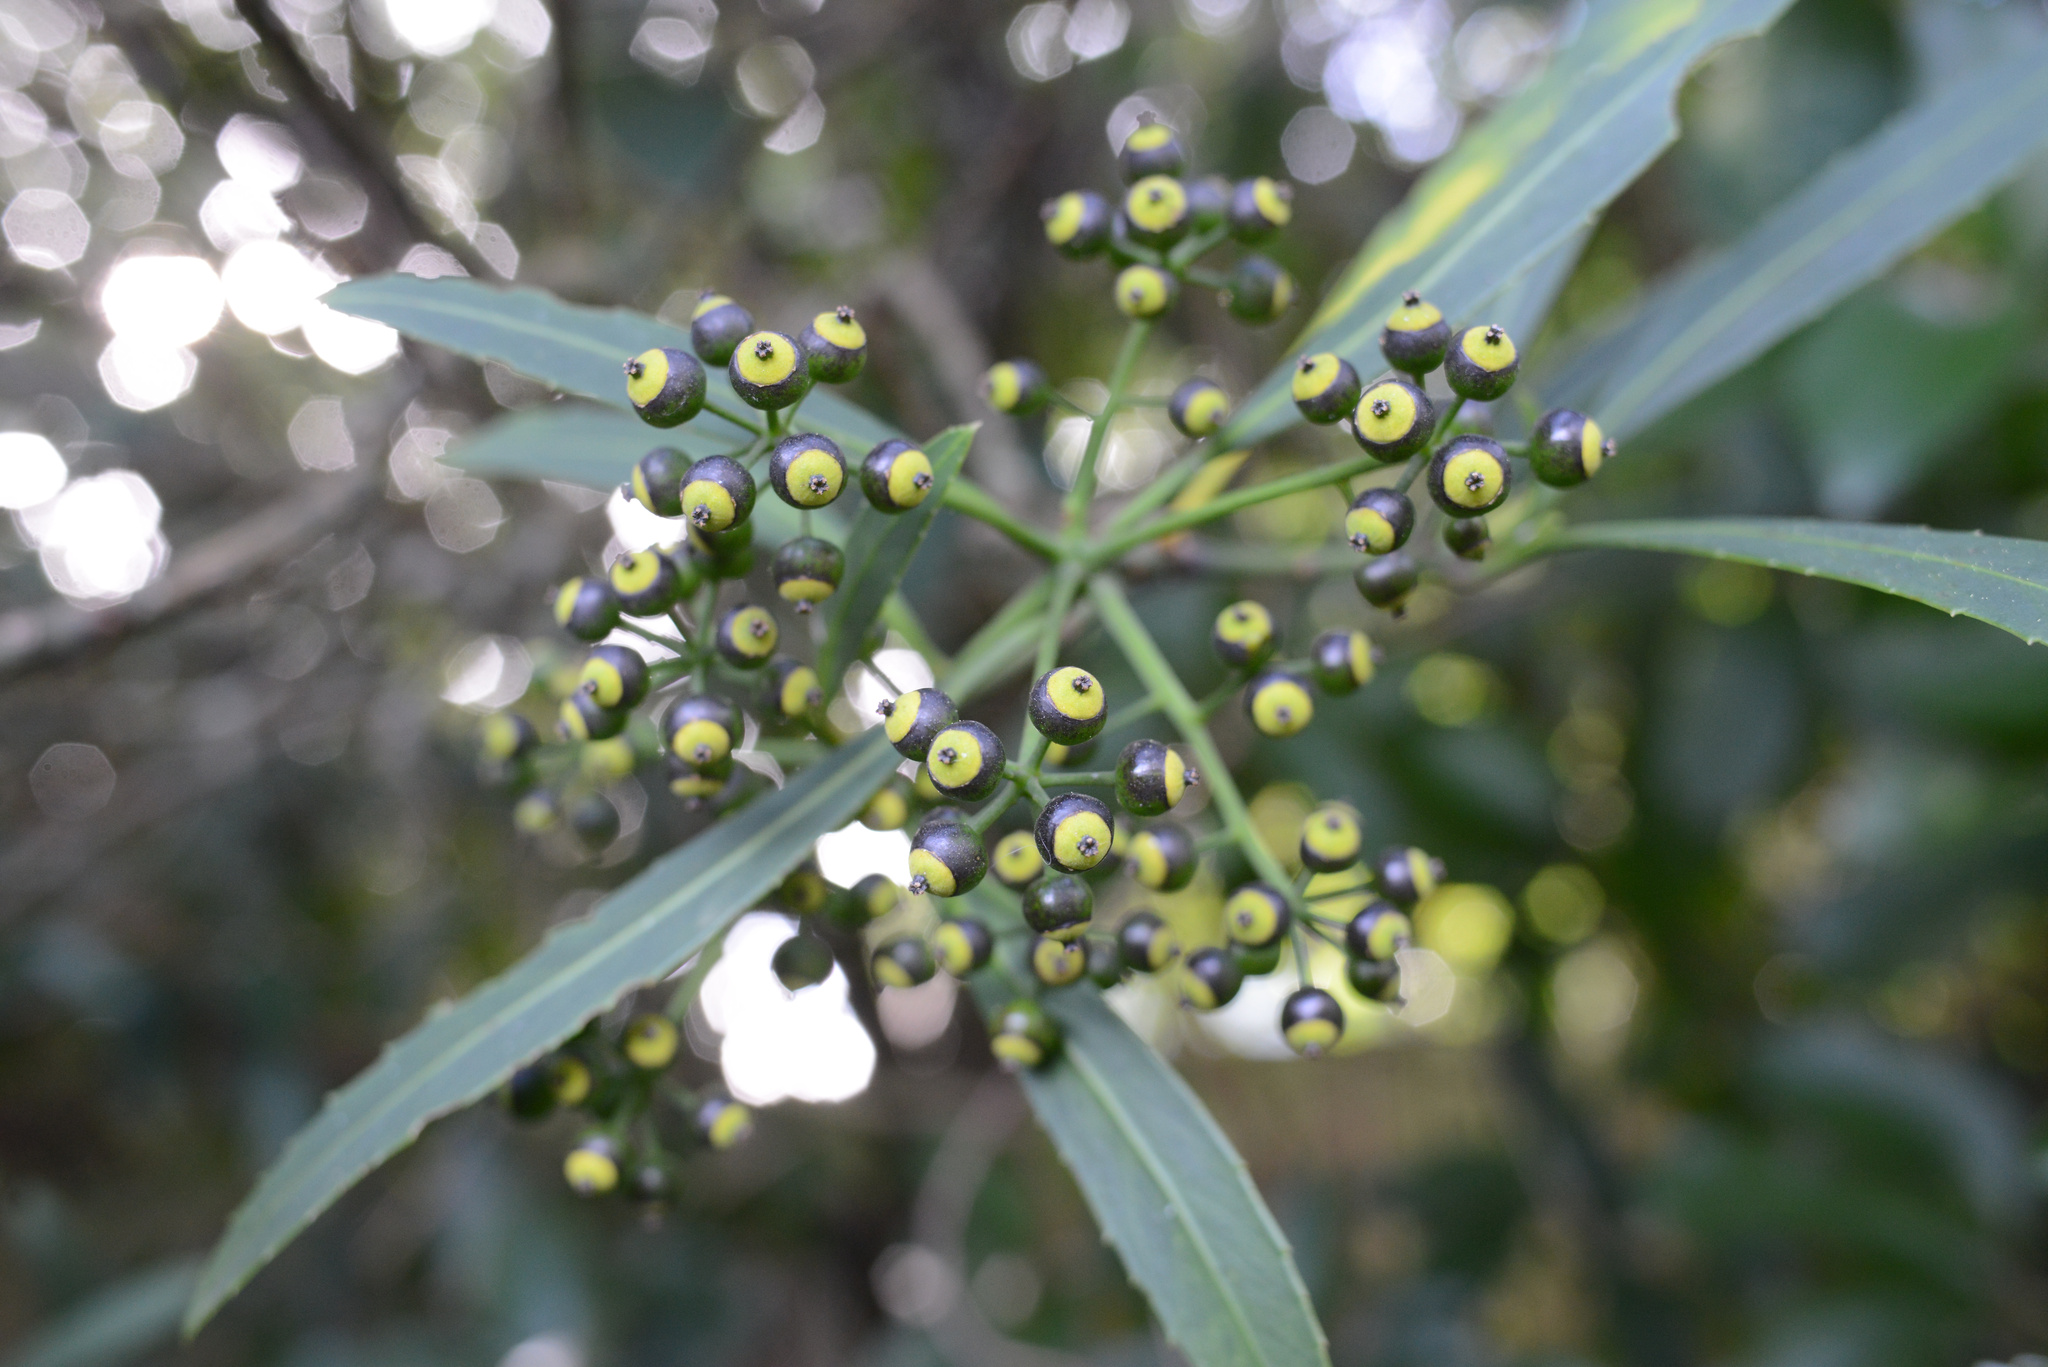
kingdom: Plantae
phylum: Tracheophyta
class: Magnoliopsida
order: Apiales
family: Araliaceae
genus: Pseudopanax
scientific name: Pseudopanax crassifolius
